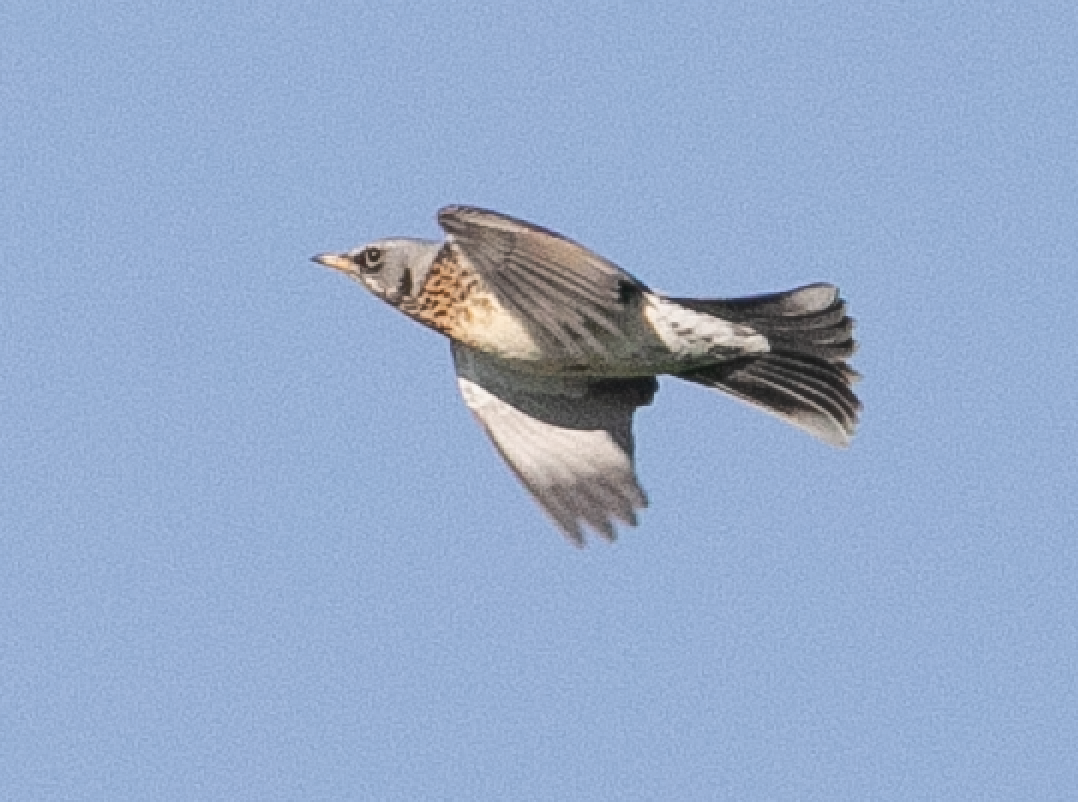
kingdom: Animalia
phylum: Chordata
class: Aves
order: Passeriformes
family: Turdidae
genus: Turdus
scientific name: Turdus pilaris
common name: Fieldfare
